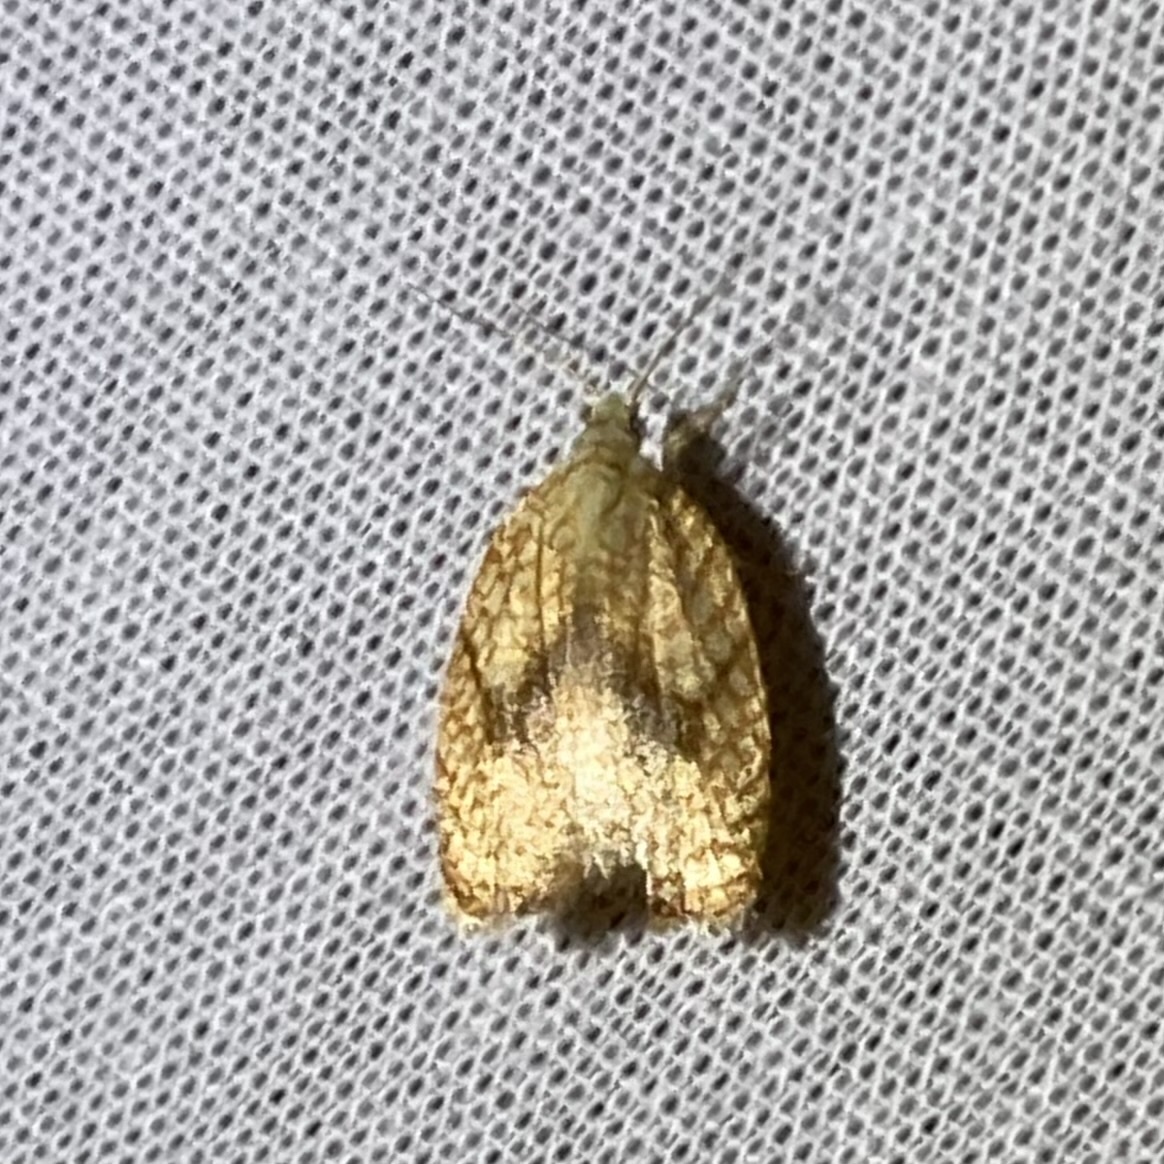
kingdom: Animalia
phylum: Arthropoda
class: Insecta
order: Lepidoptera
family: Tortricidae
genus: Acleris
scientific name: Acleris forsskaleana
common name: Maple button
